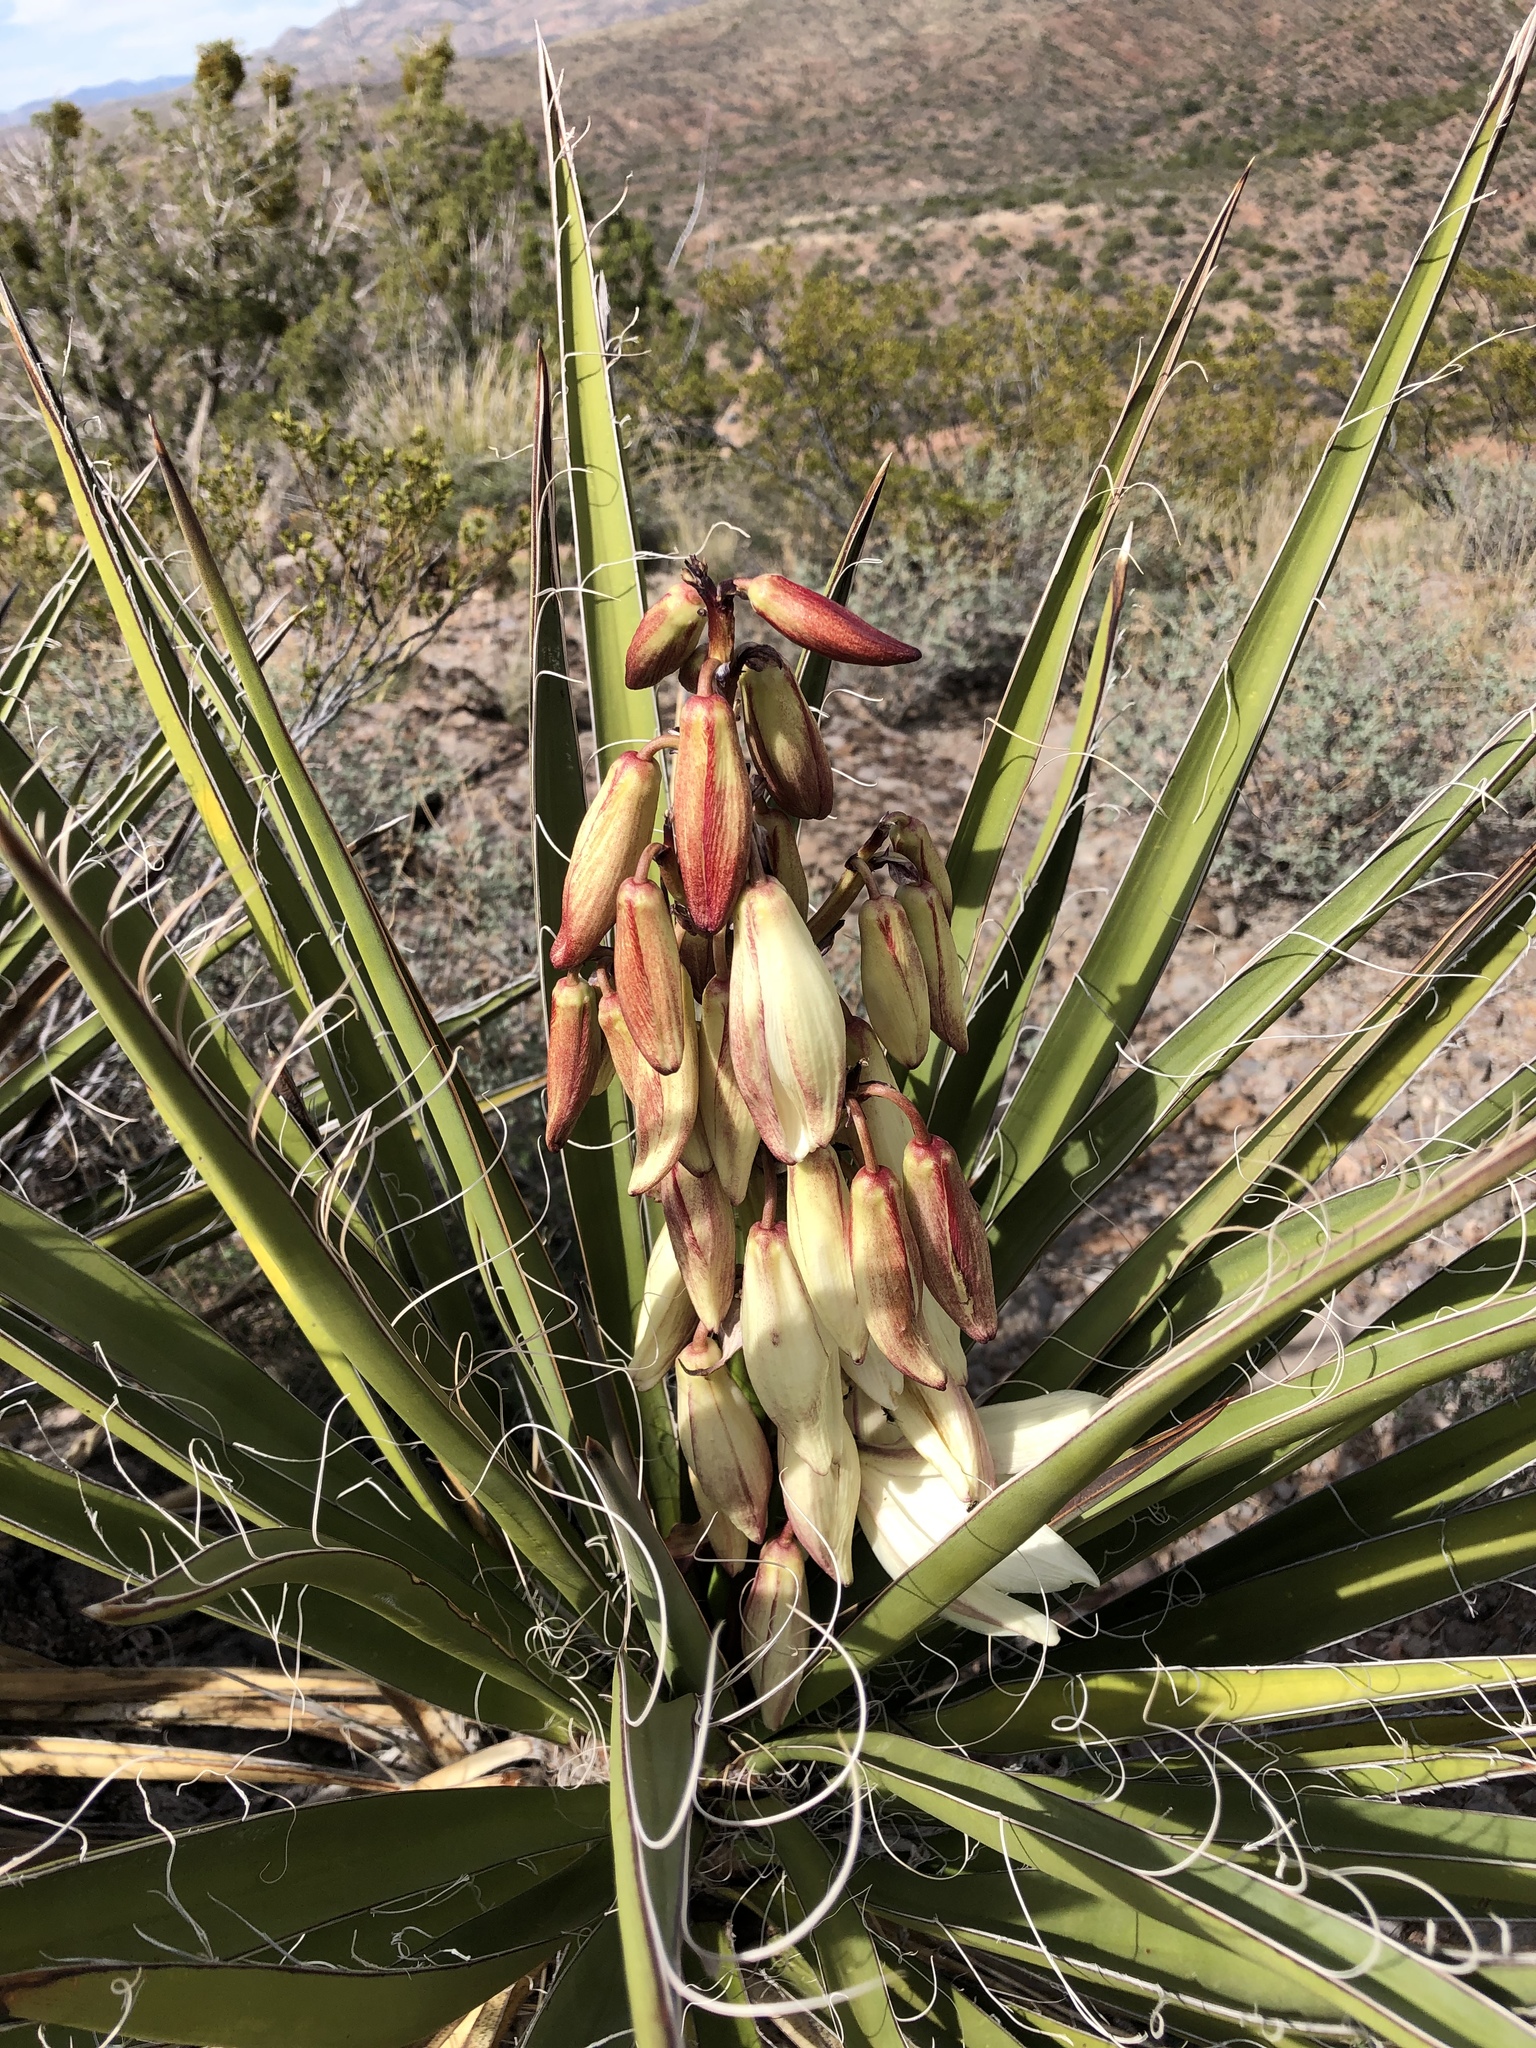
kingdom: Plantae
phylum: Tracheophyta
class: Liliopsida
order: Asparagales
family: Asparagaceae
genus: Yucca
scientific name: Yucca baccata
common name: Banana yucca
